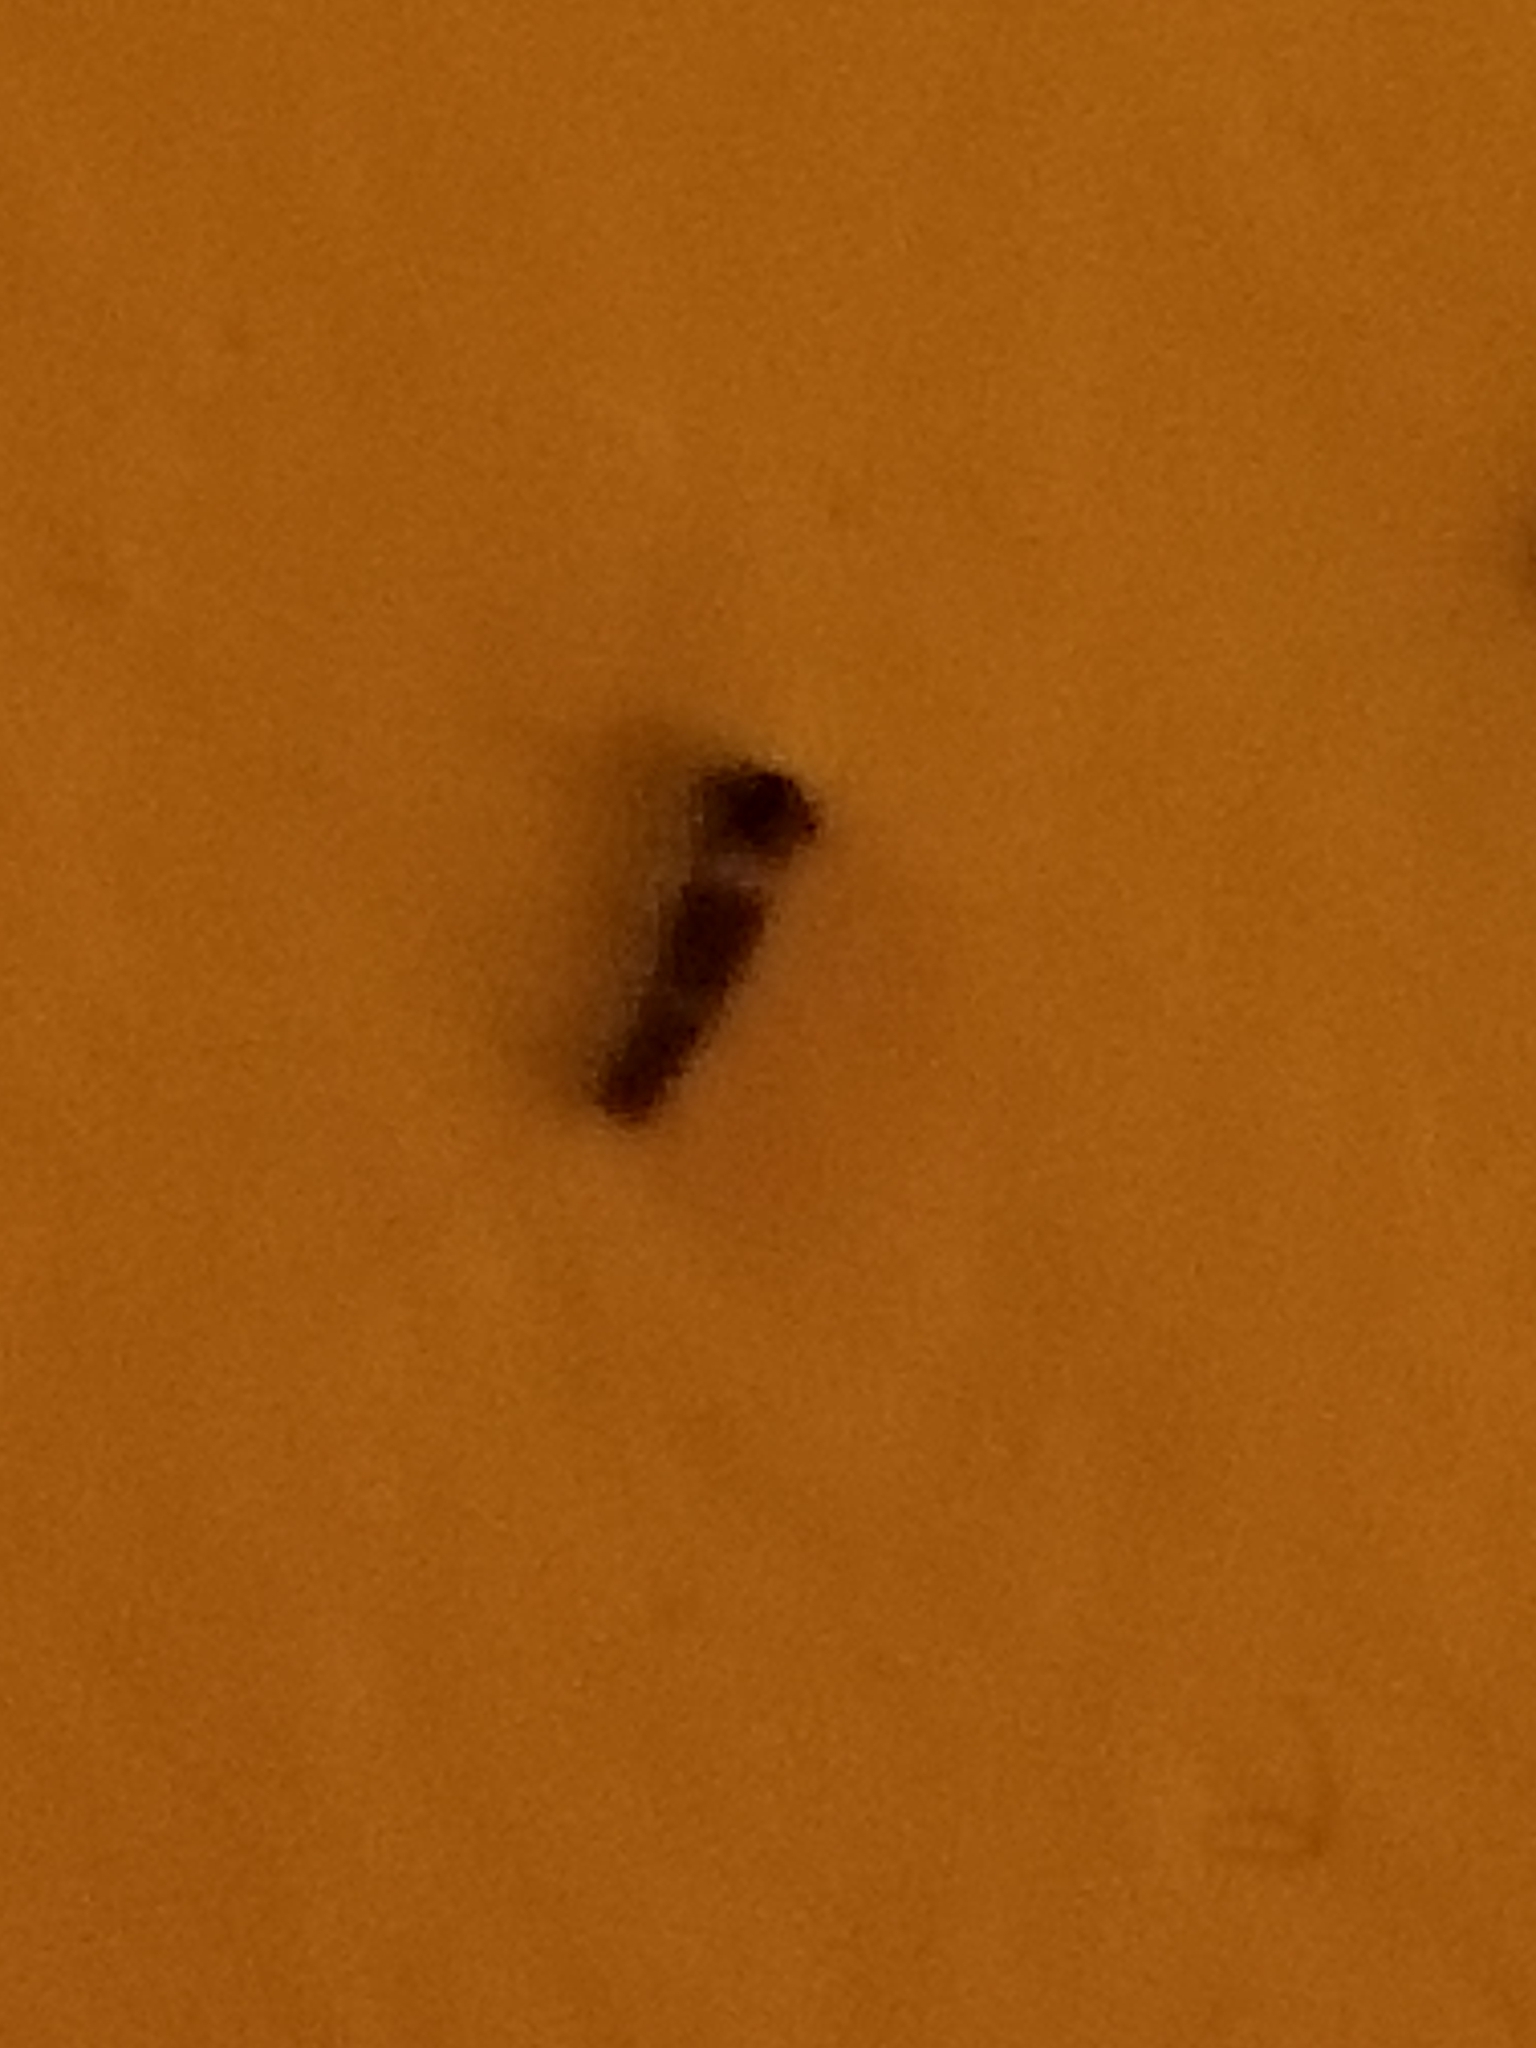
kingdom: Animalia
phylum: Arthropoda
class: Insecta
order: Lepidoptera
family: Erebidae
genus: Lymantria
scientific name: Lymantria dispar
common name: Gypsy moth
